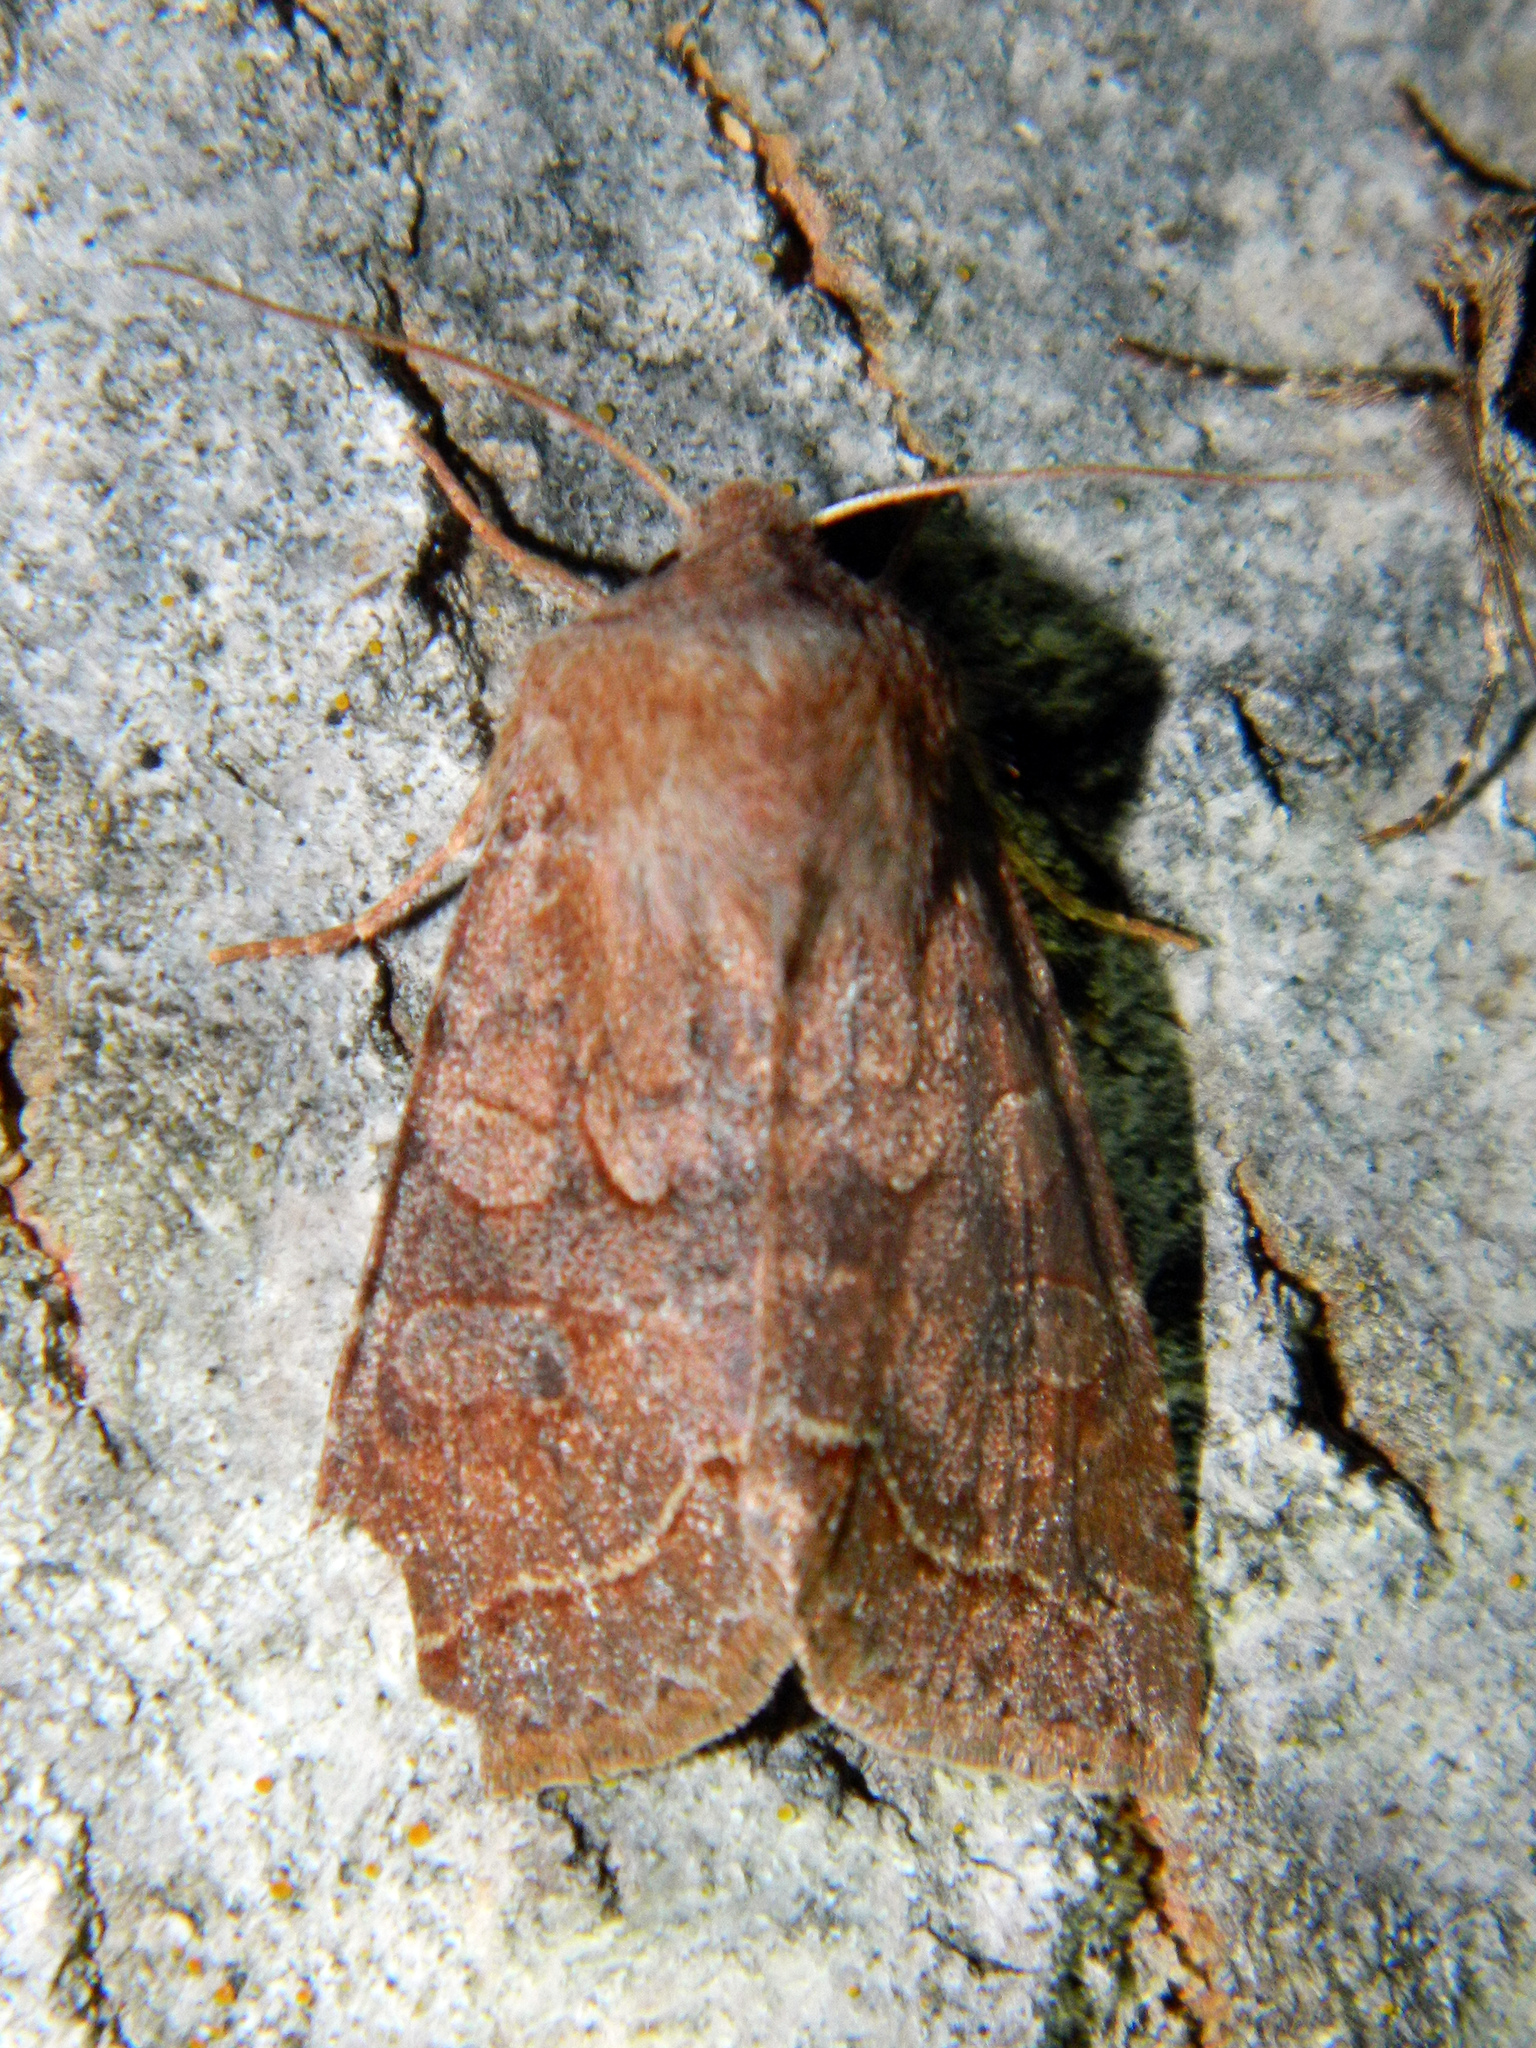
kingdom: Animalia
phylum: Arthropoda
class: Insecta
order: Lepidoptera
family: Noctuidae
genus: Orthosia
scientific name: Orthosia revicta
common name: Rusty whitesided caterpillar
